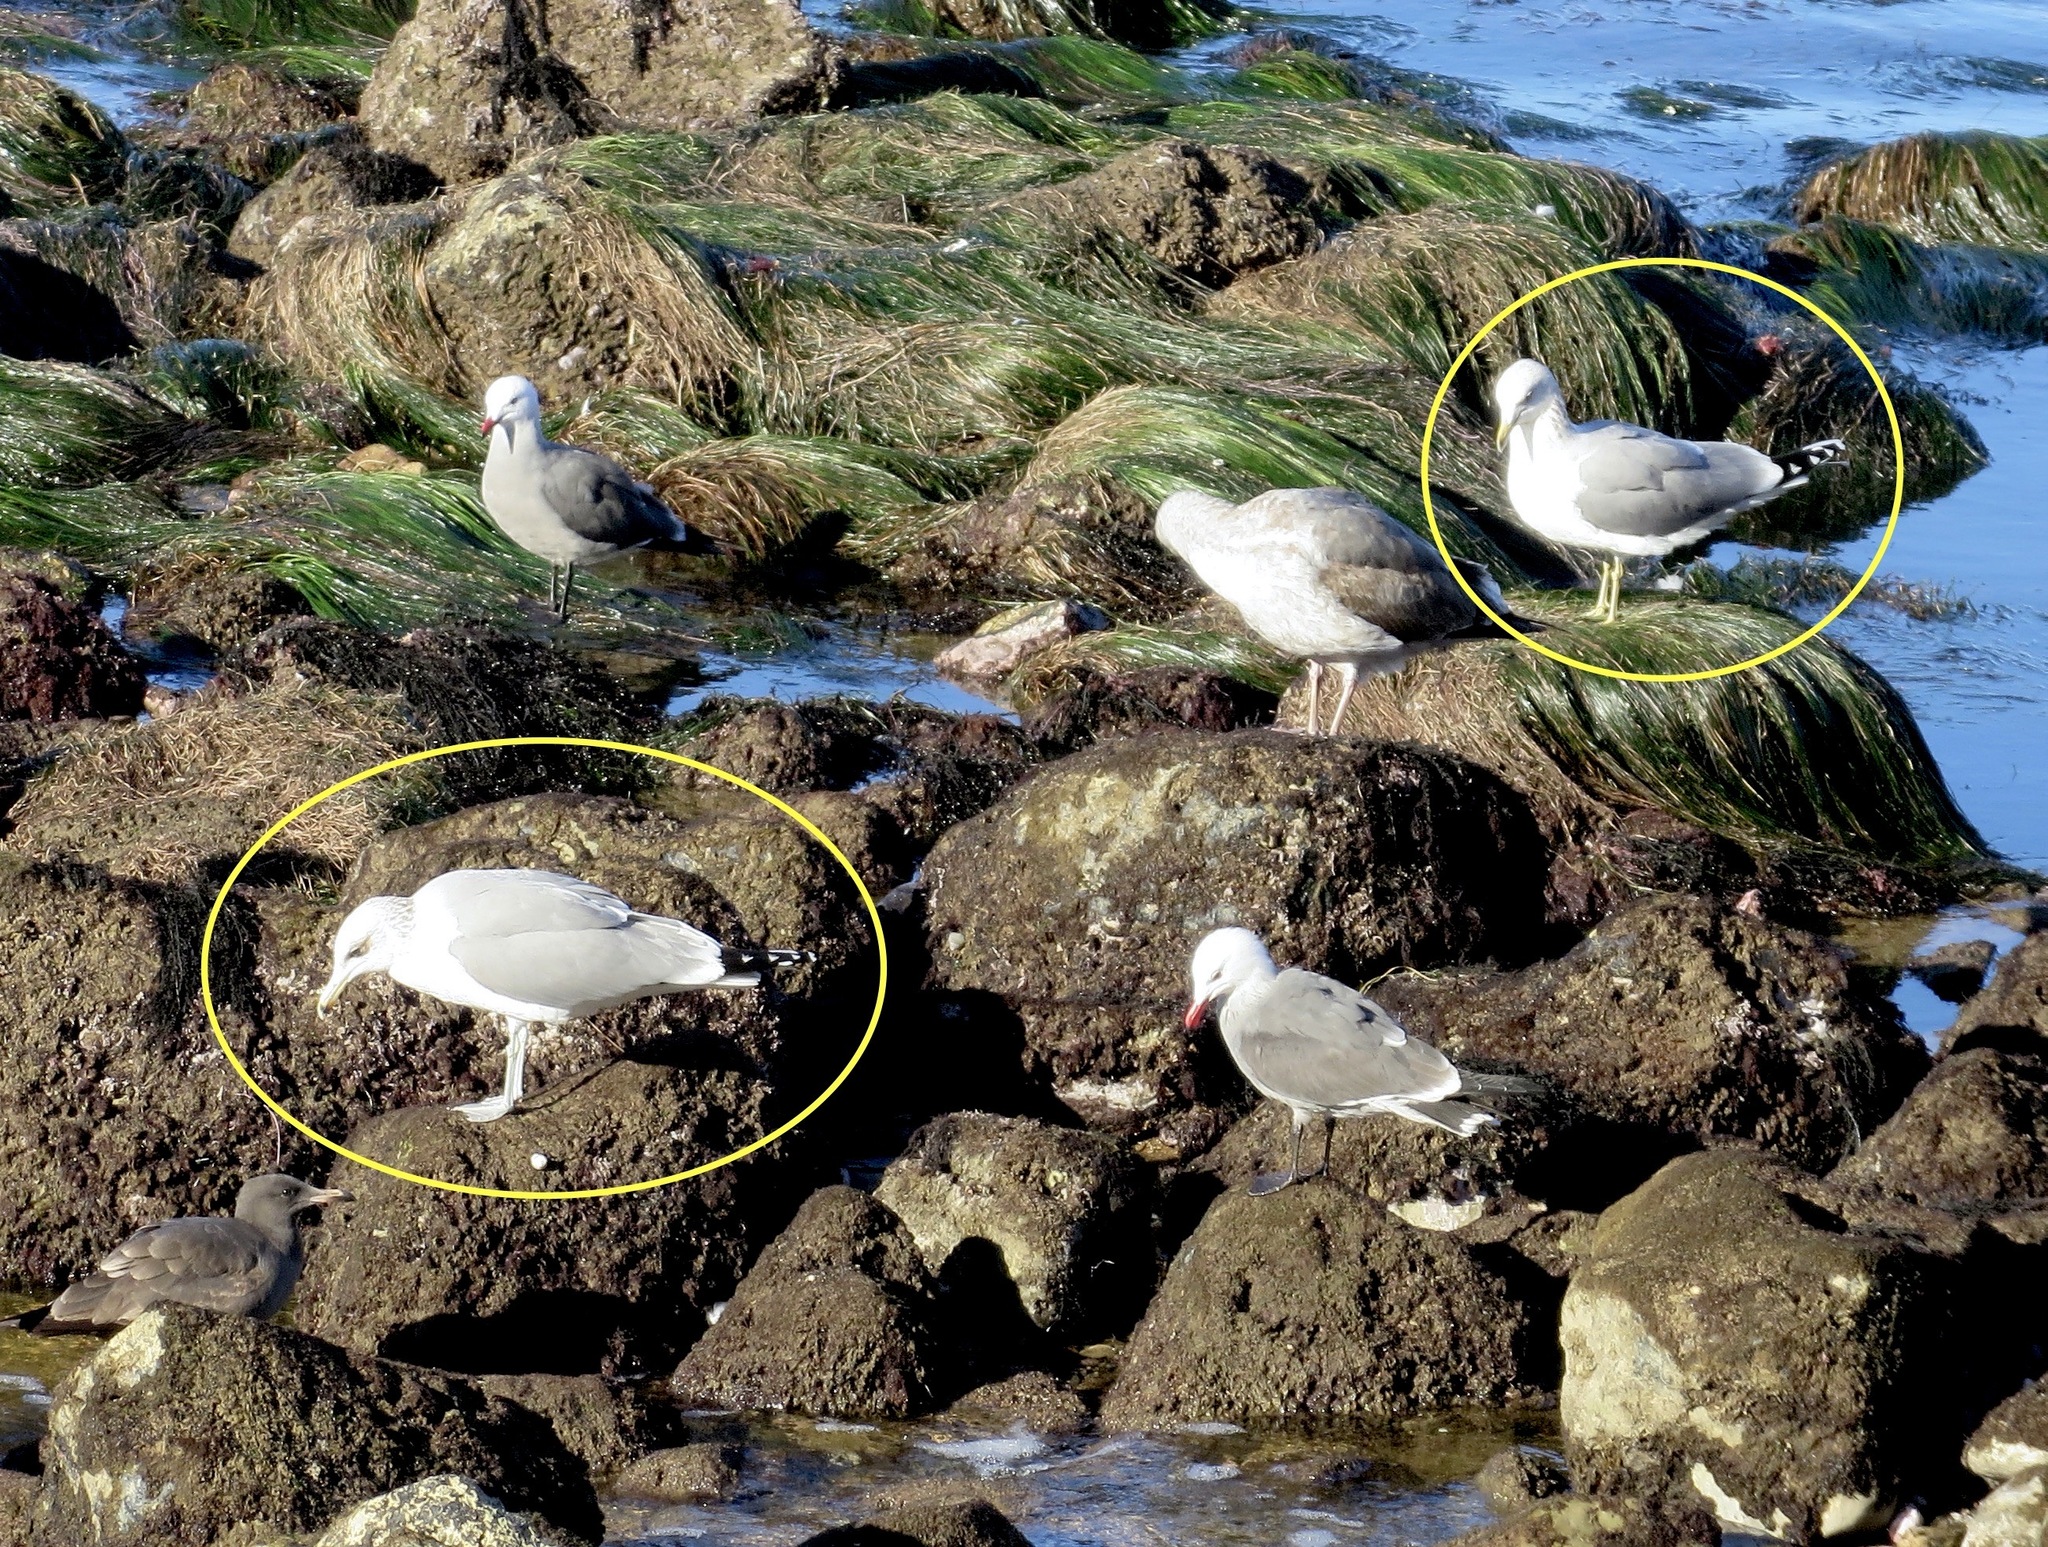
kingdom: Animalia
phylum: Chordata
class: Aves
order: Charadriiformes
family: Laridae
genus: Larus
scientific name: Larus californicus
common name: California gull
